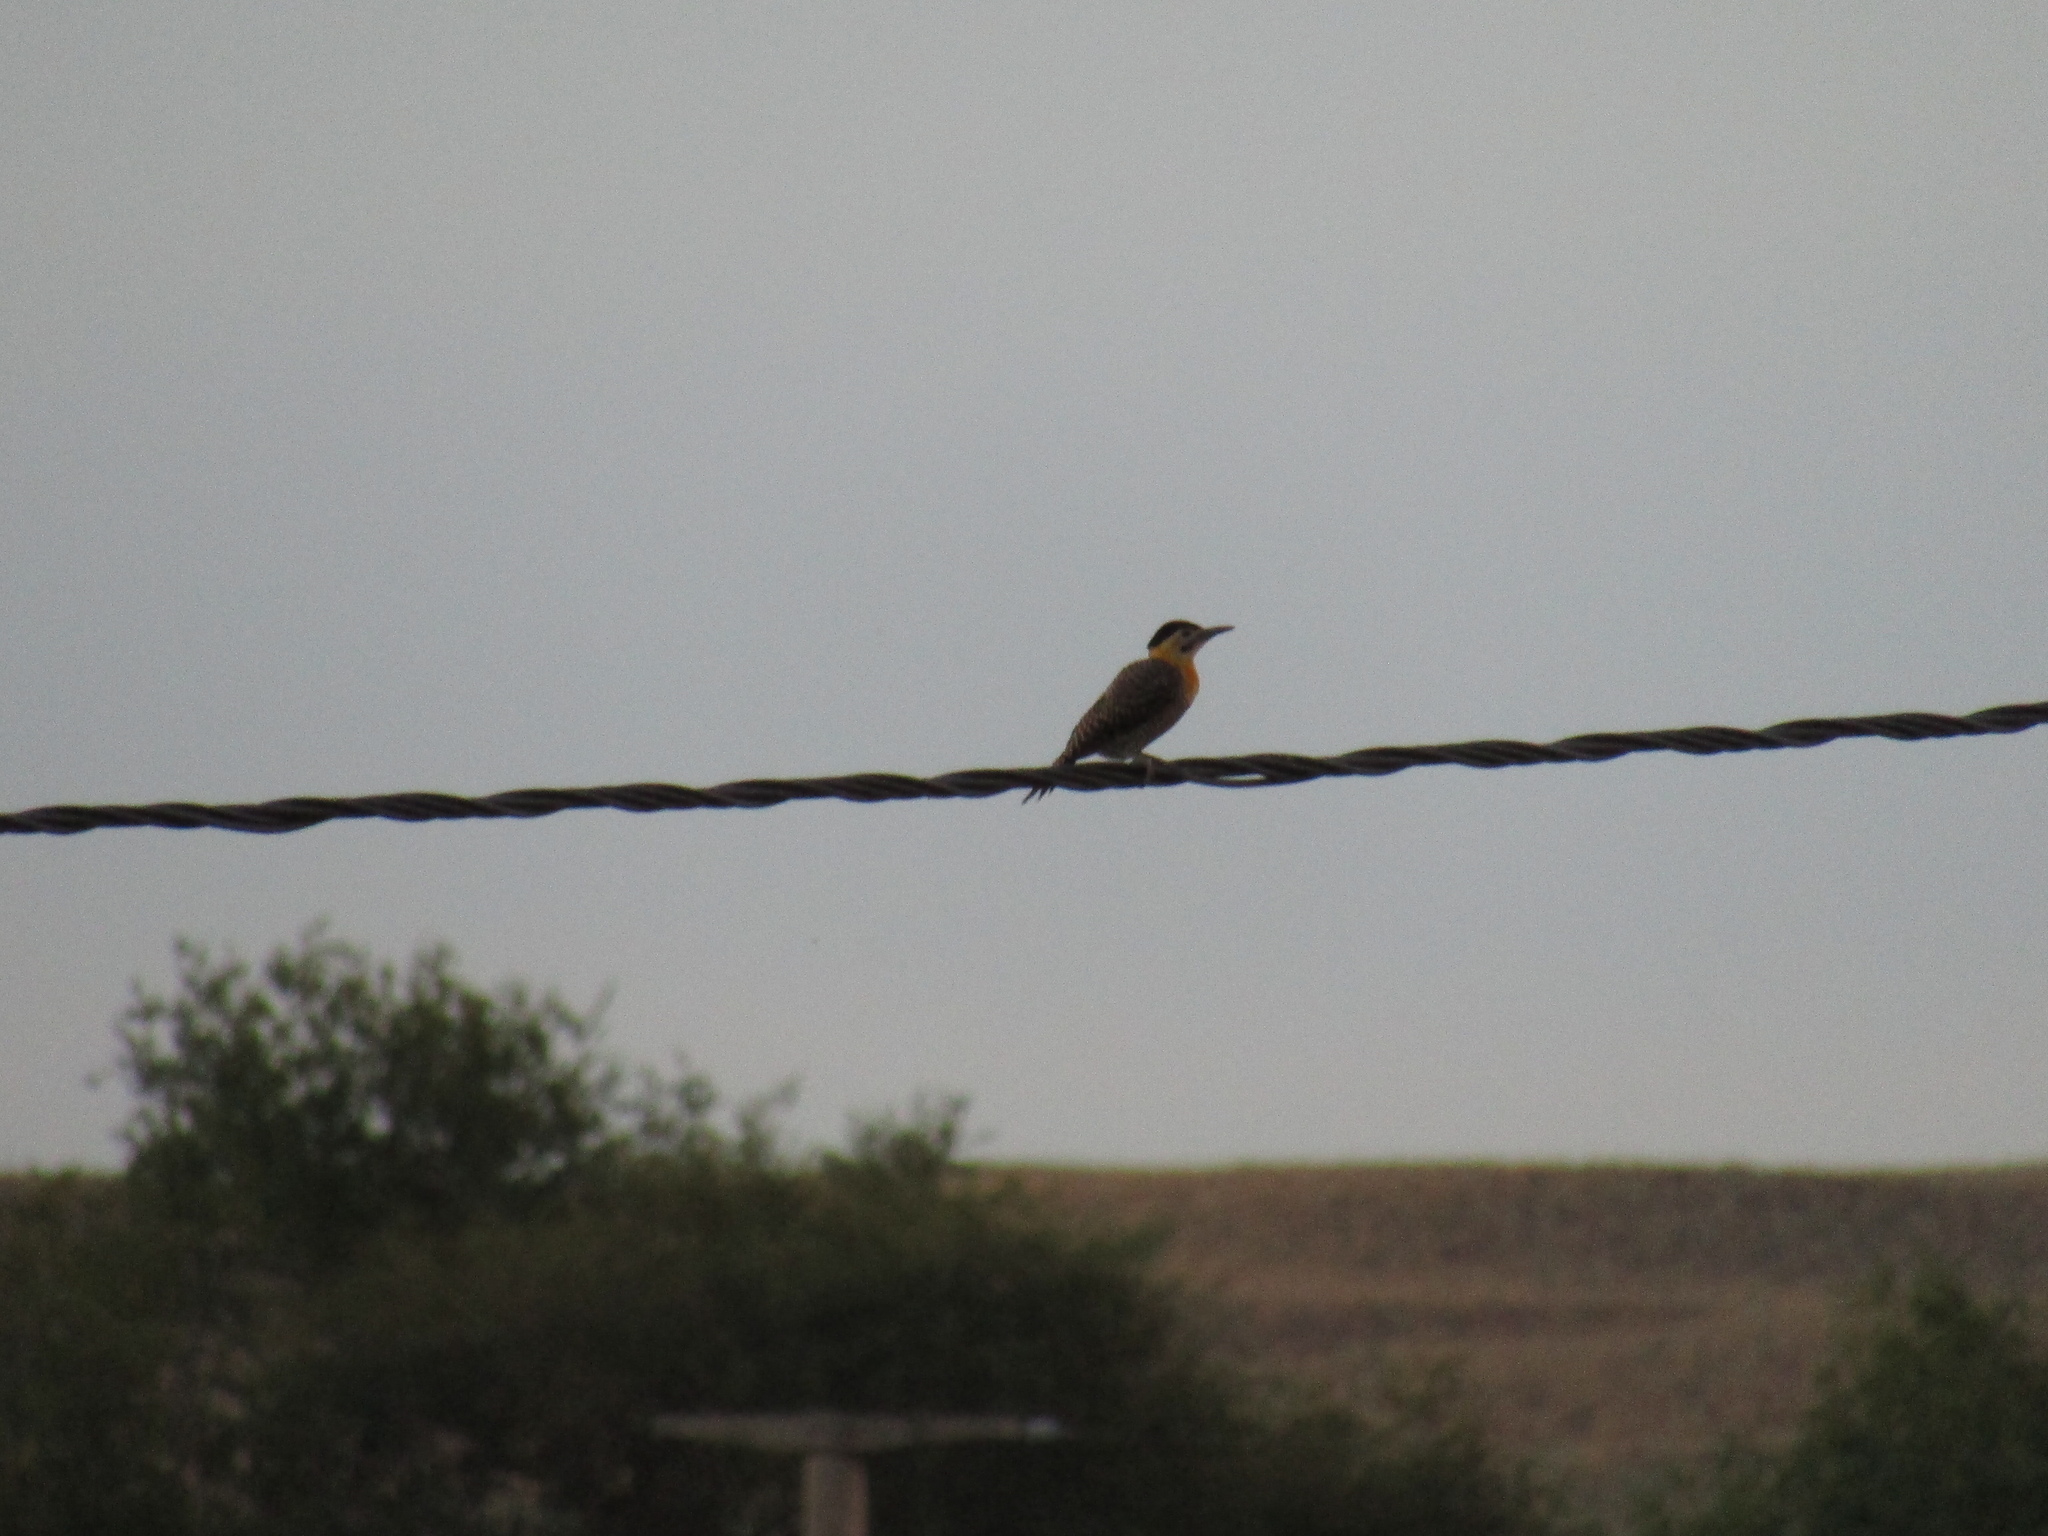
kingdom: Animalia
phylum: Chordata
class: Aves
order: Piciformes
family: Picidae
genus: Colaptes
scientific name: Colaptes campestris
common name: Campo flicker
